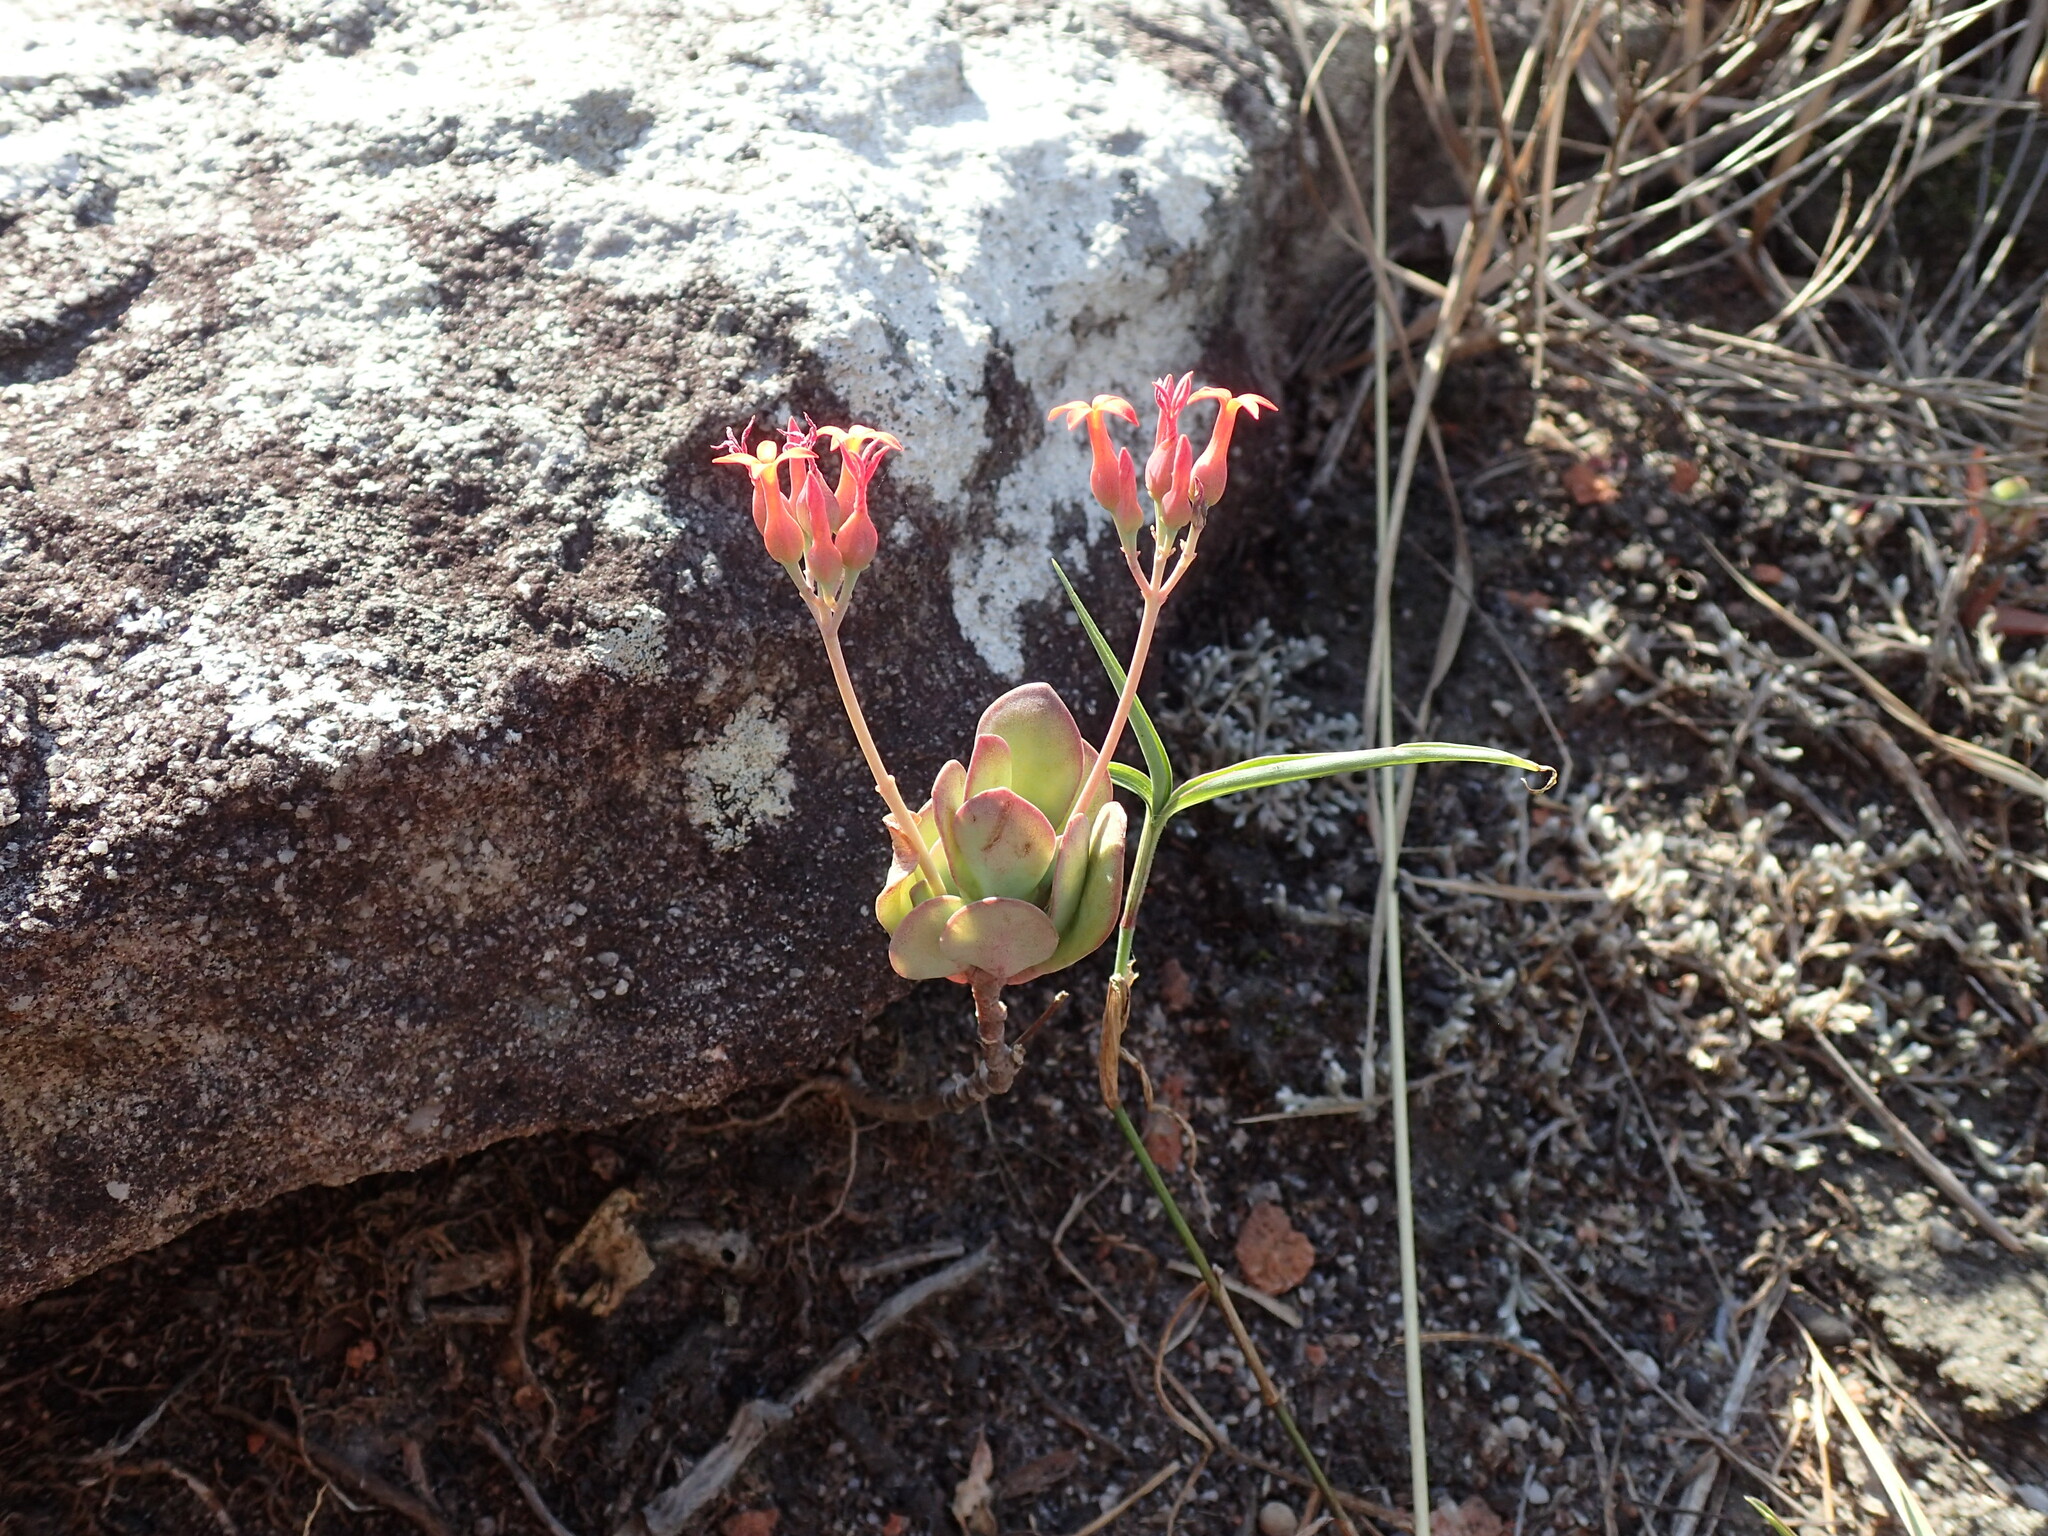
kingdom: Plantae
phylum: Tracheophyta
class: Magnoliopsida
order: Saxifragales
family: Crassulaceae
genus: Kalanchoe
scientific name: Kalanchoe rotundifolia
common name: Common kalanchoe
